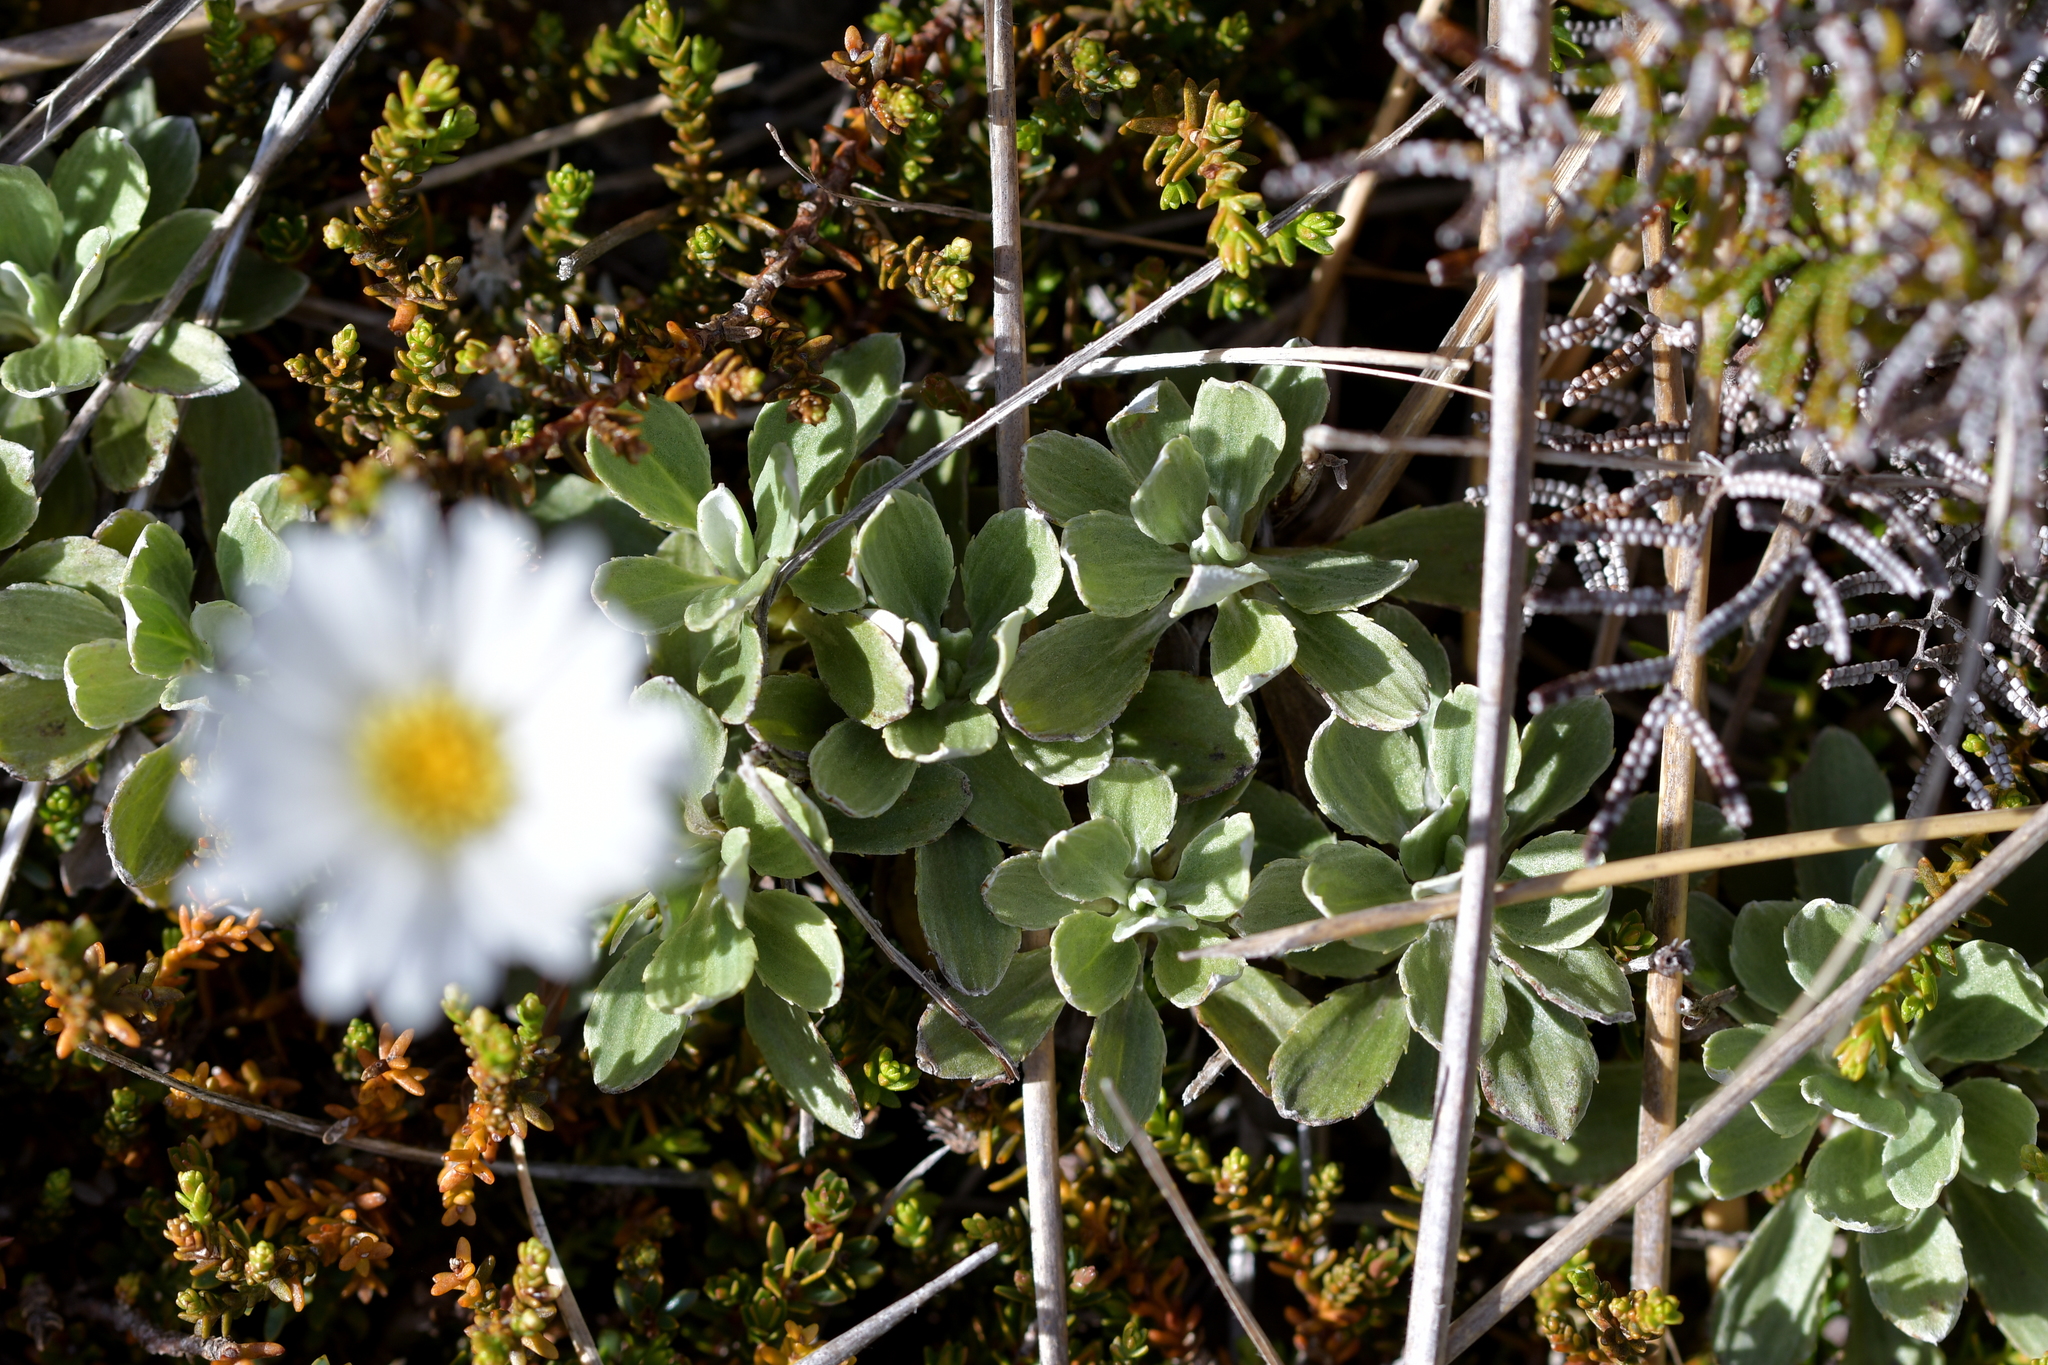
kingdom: Plantae
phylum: Tracheophyta
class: Magnoliopsida
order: Asterales
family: Asteraceae
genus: Celmisia
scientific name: Celmisia discolor
